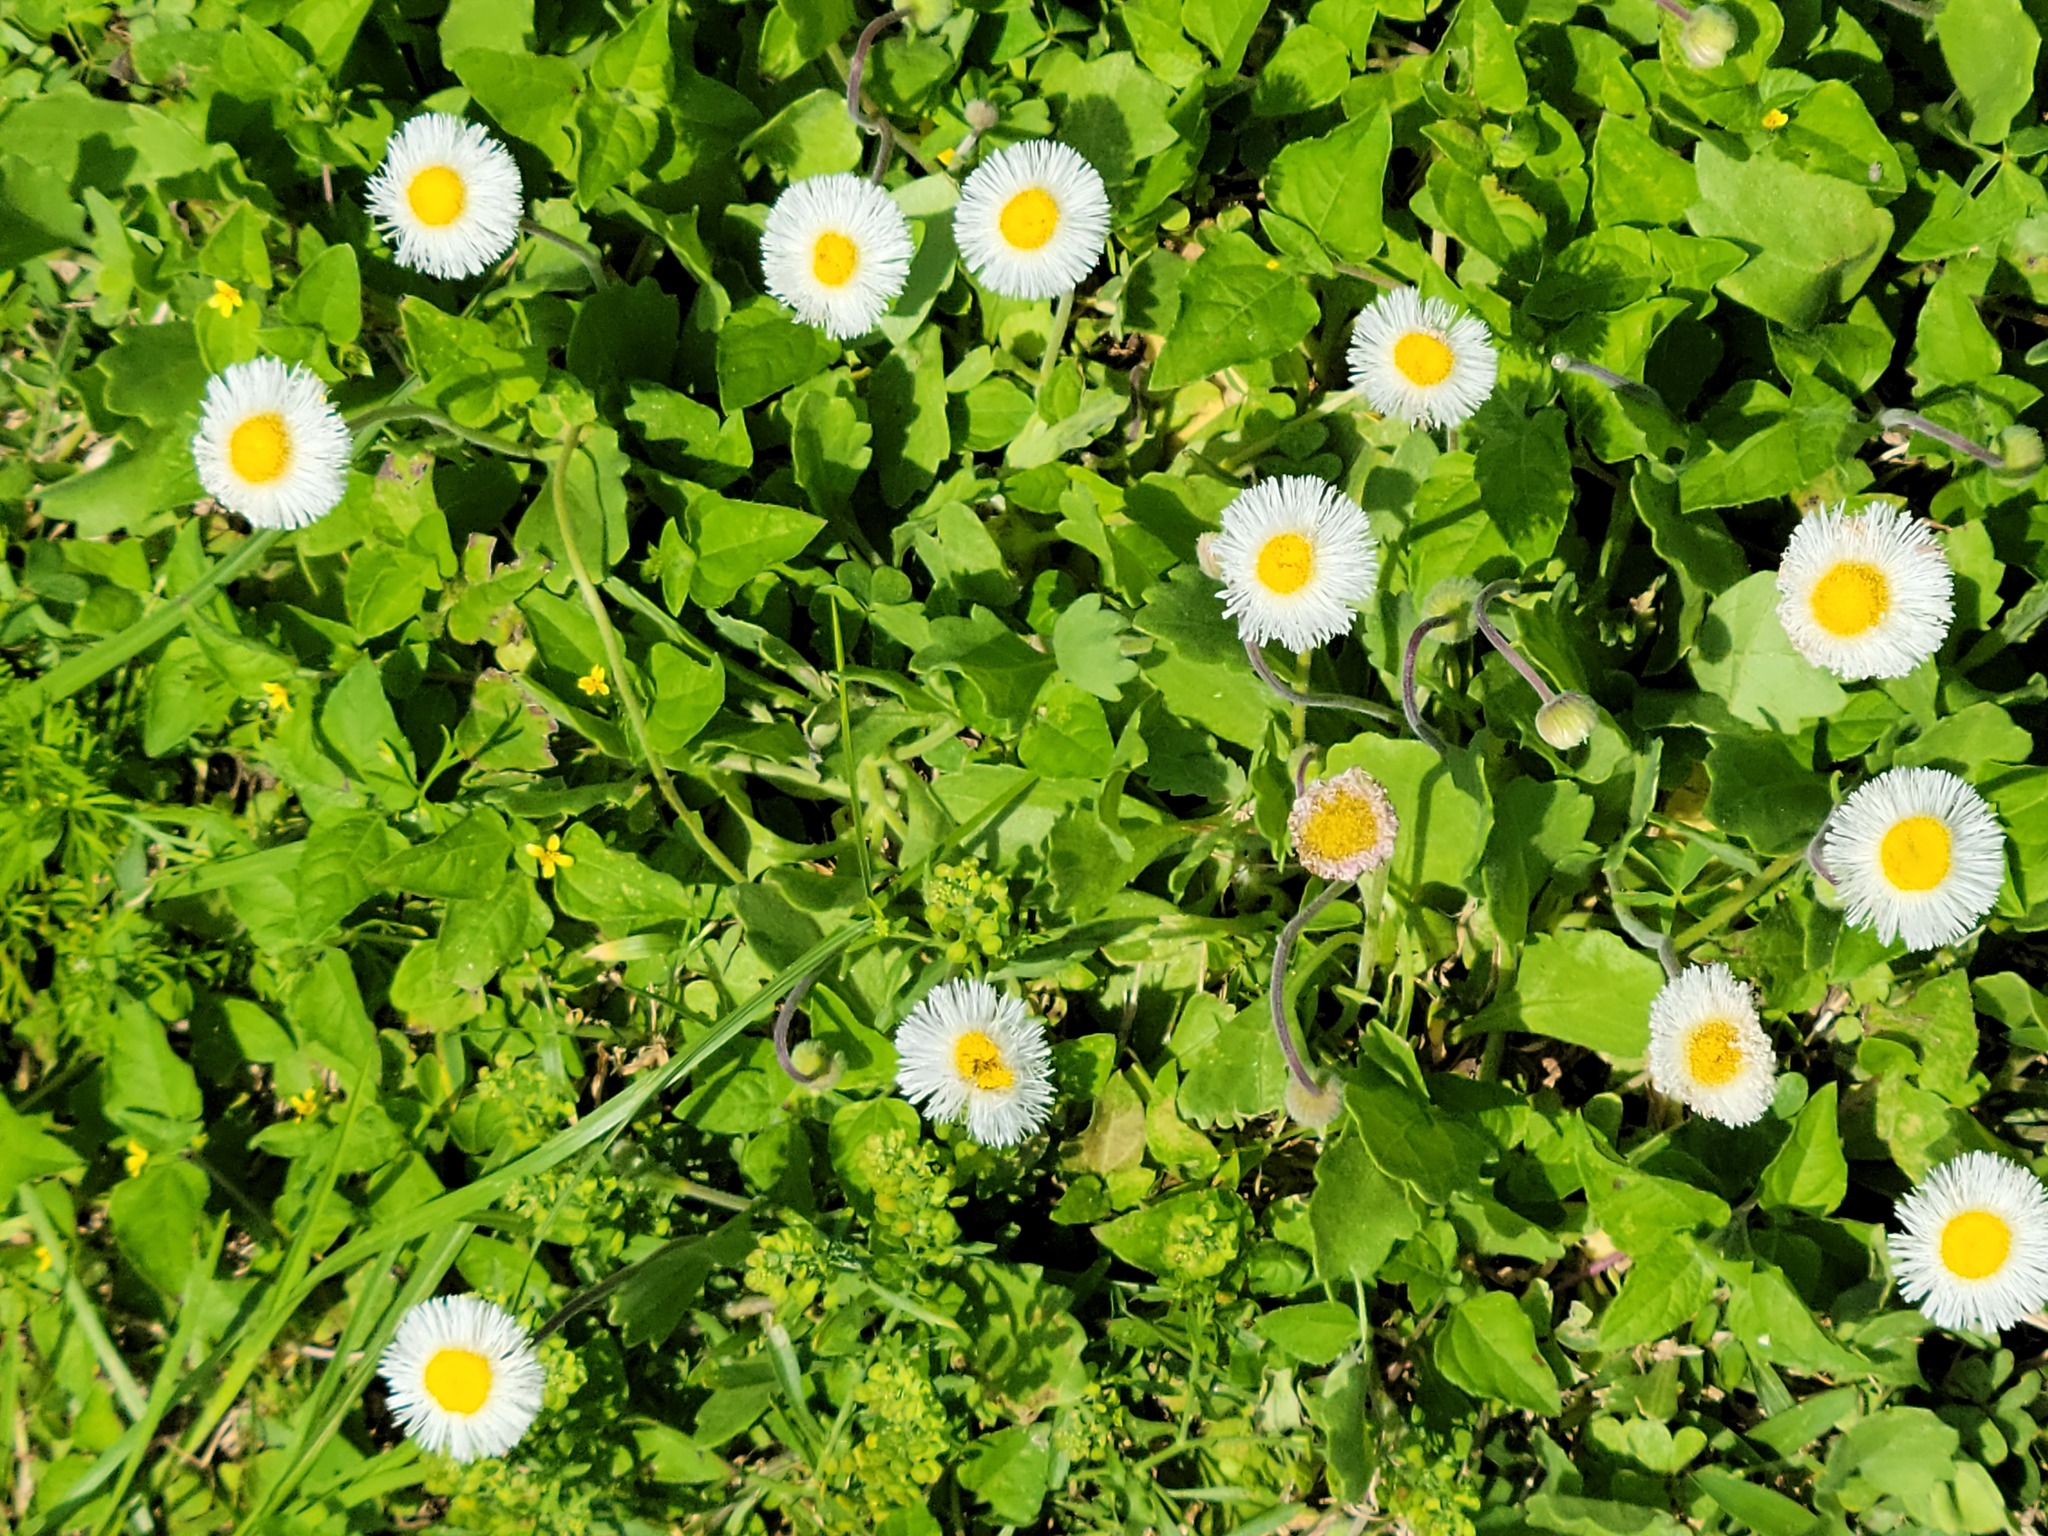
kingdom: Plantae
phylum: Tracheophyta
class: Magnoliopsida
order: Asterales
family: Asteraceae
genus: Erigeron
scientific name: Erigeron procumbens
